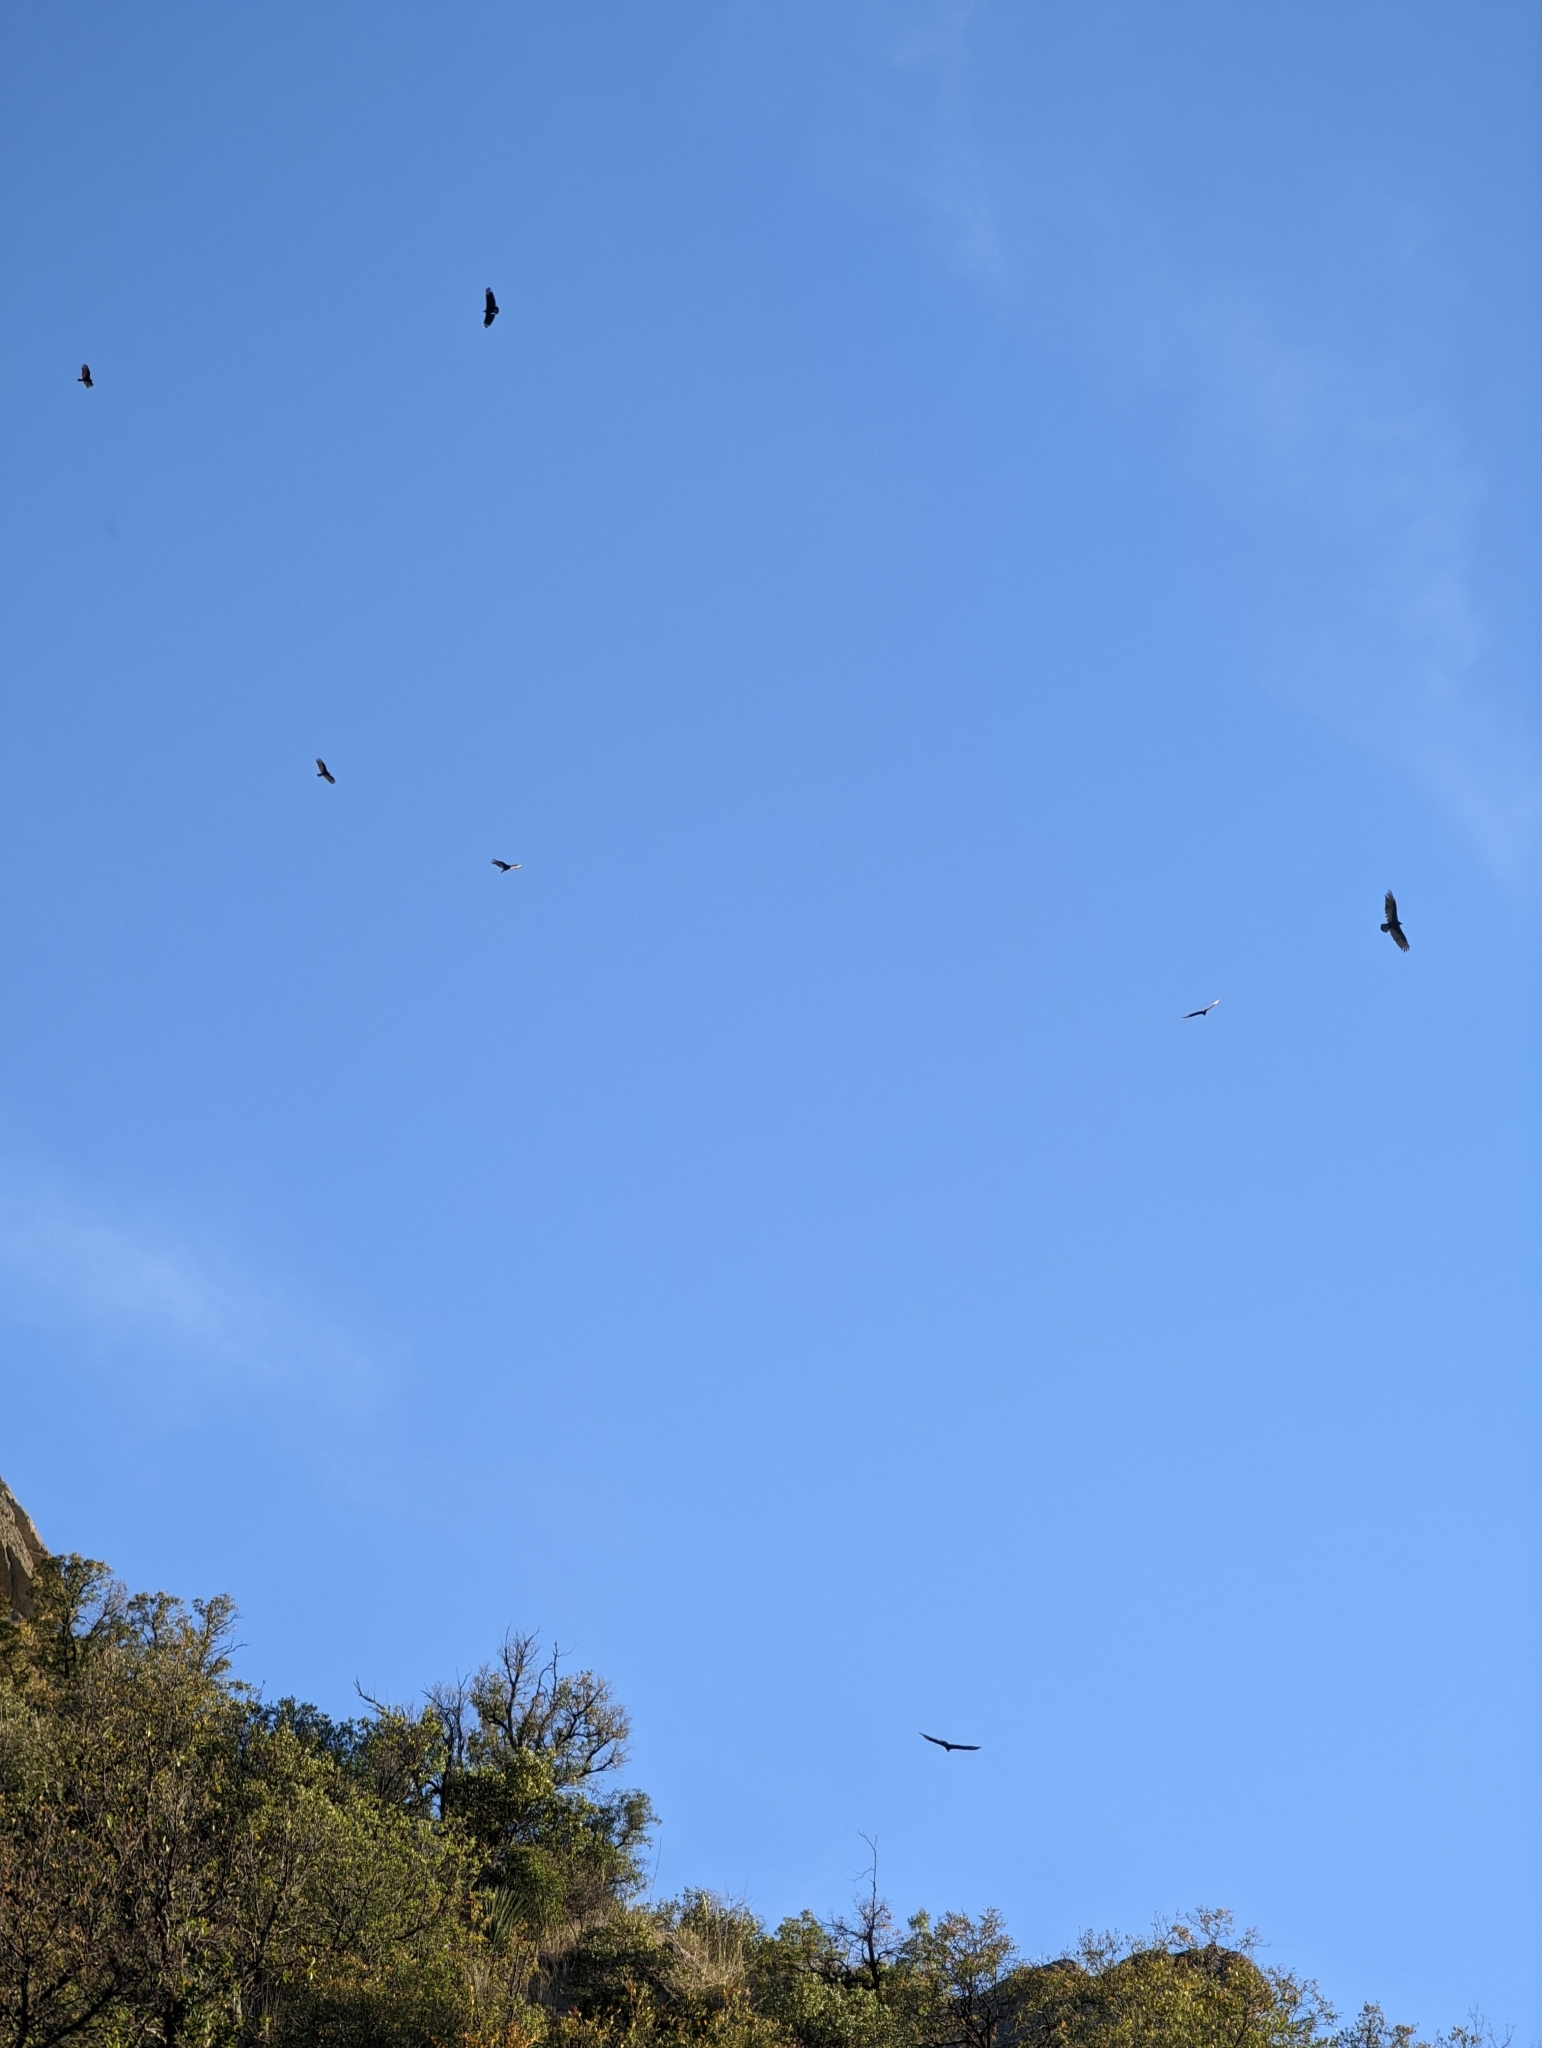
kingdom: Animalia
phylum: Chordata
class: Aves
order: Accipitriformes
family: Cathartidae
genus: Cathartes
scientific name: Cathartes aura
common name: Turkey vulture
